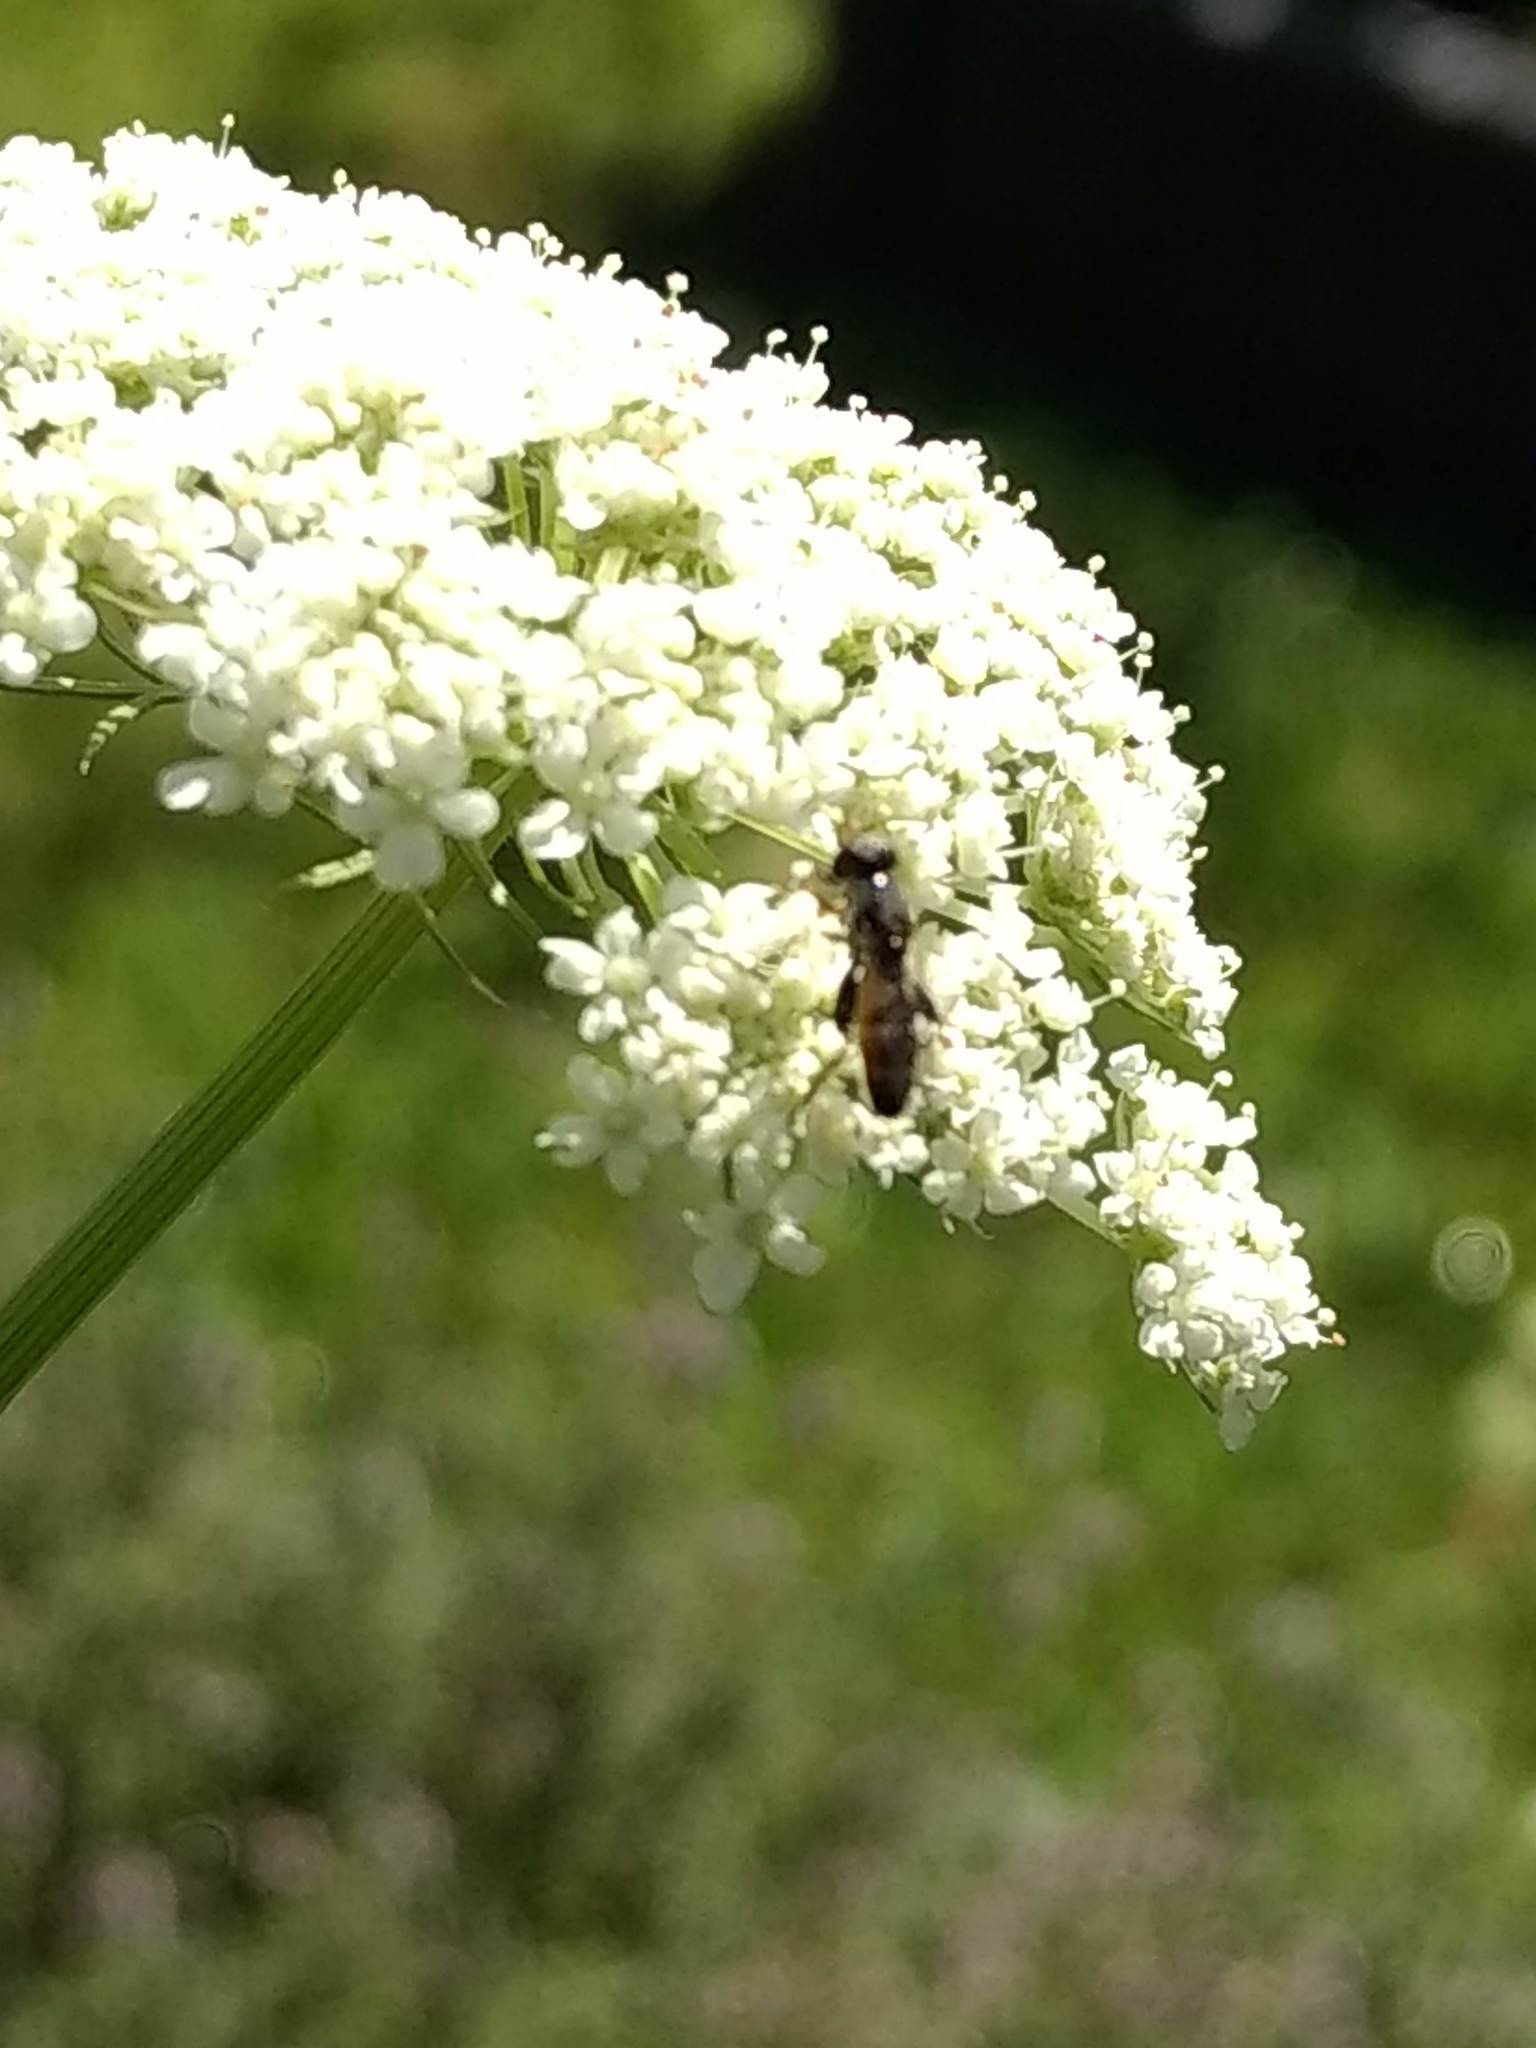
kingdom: Animalia
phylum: Arthropoda
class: Insecta
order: Diptera
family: Syrphidae
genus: Syritta
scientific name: Syritta pipiens
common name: Hover fly
